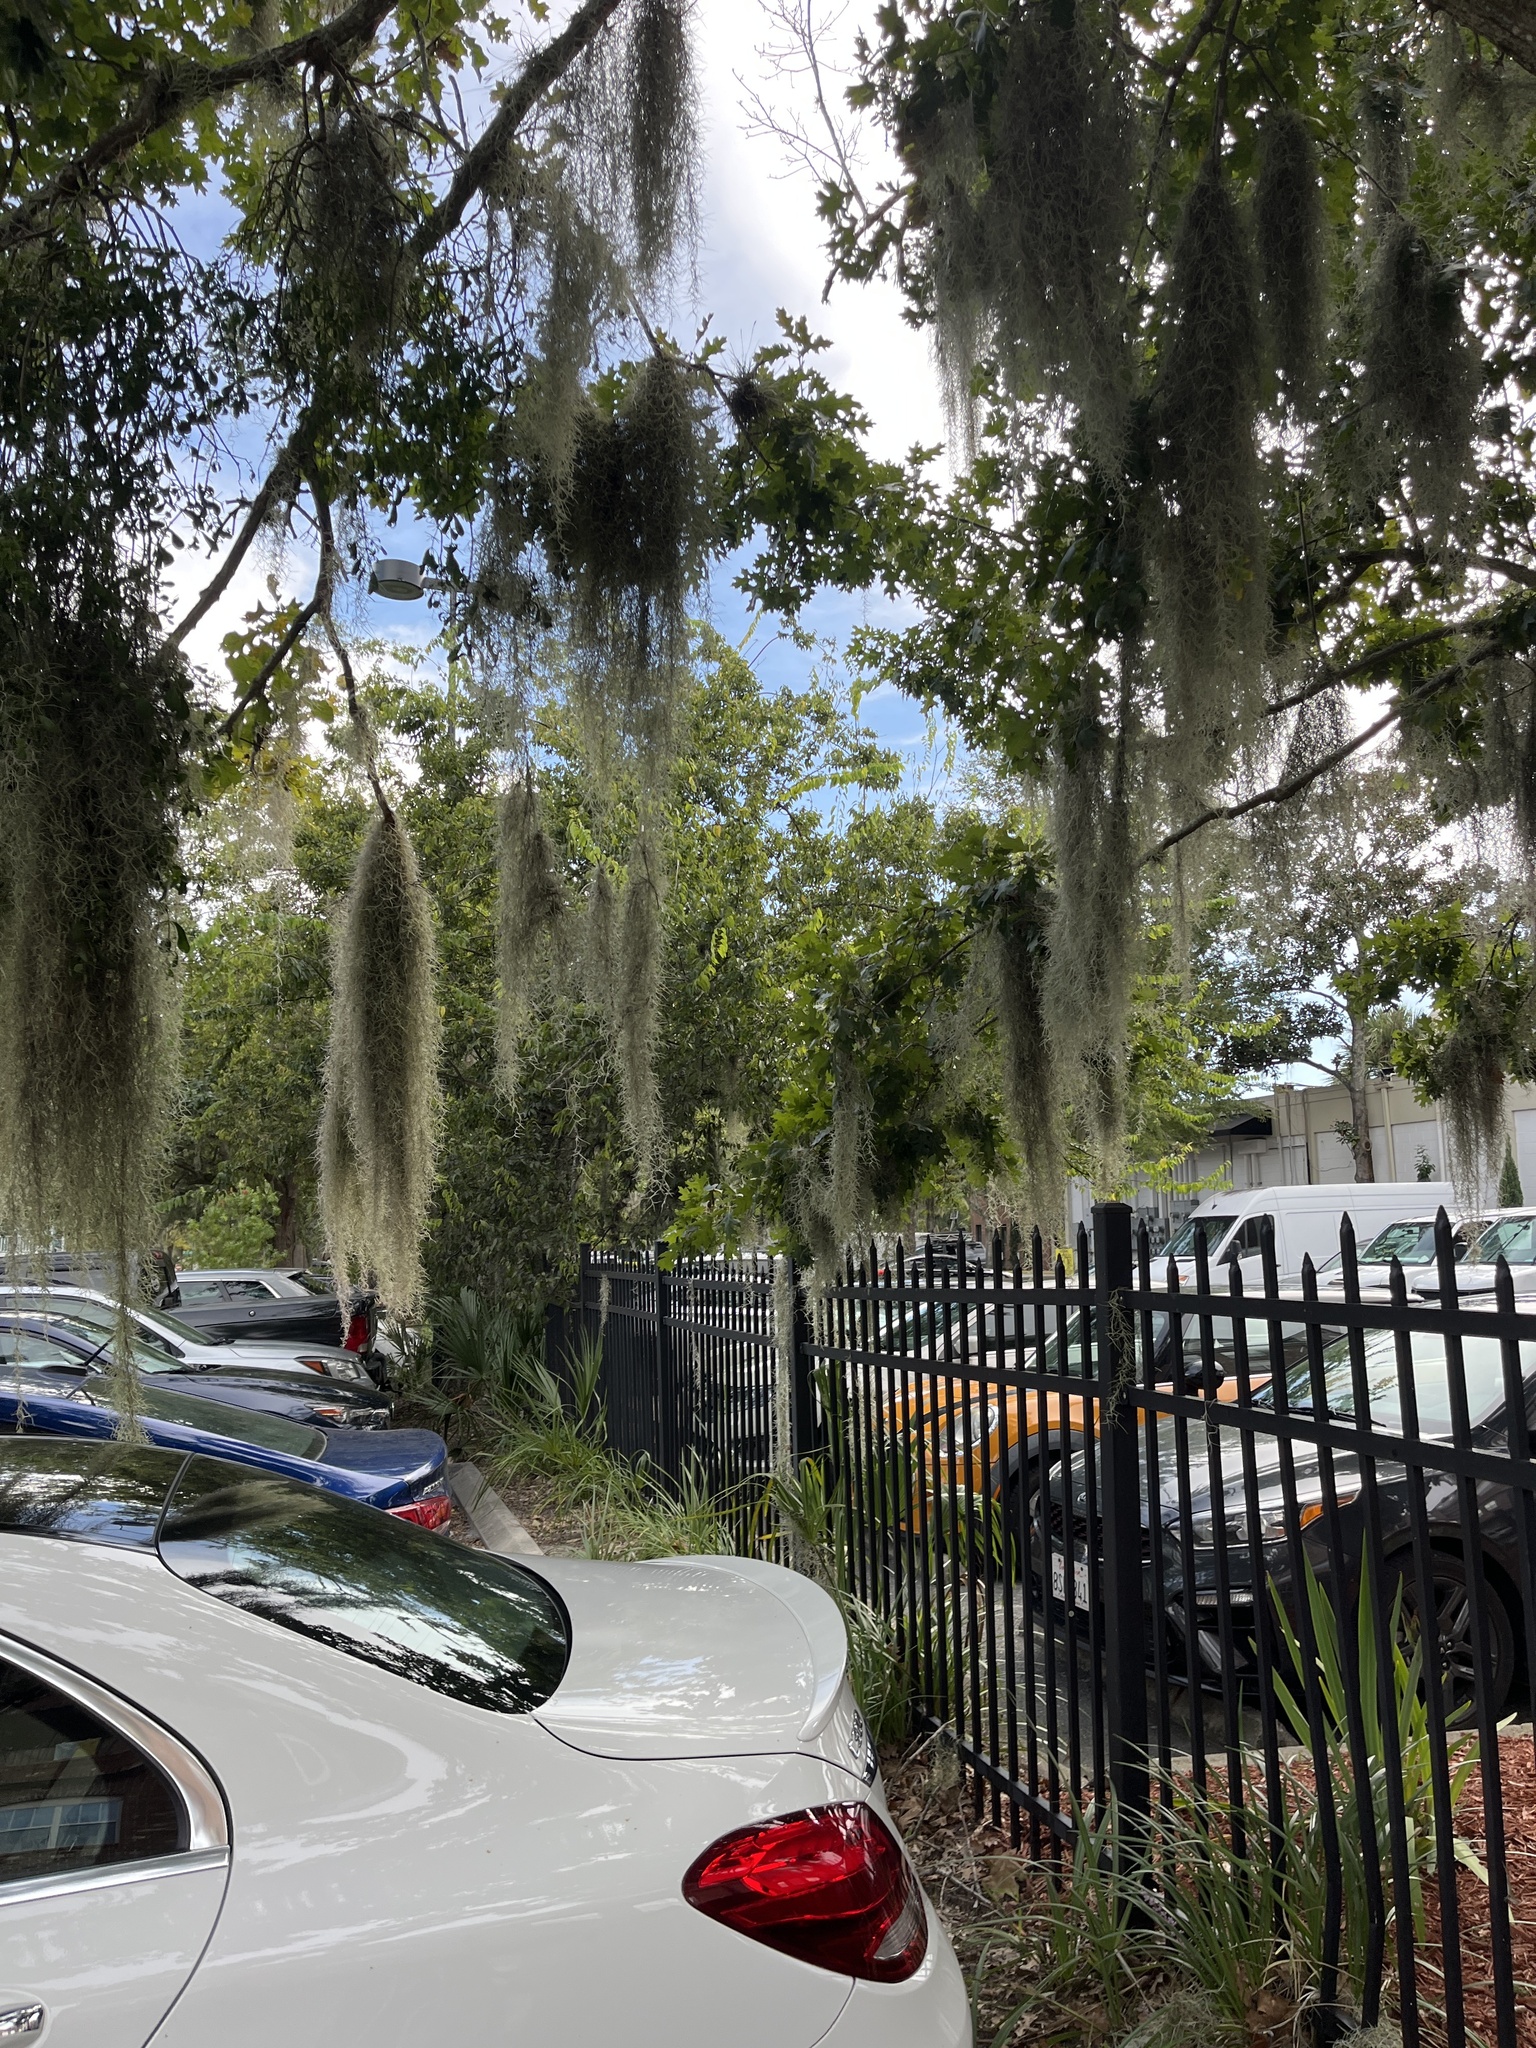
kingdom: Plantae
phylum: Tracheophyta
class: Liliopsida
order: Poales
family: Bromeliaceae
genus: Tillandsia
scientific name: Tillandsia usneoides
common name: Spanish moss
